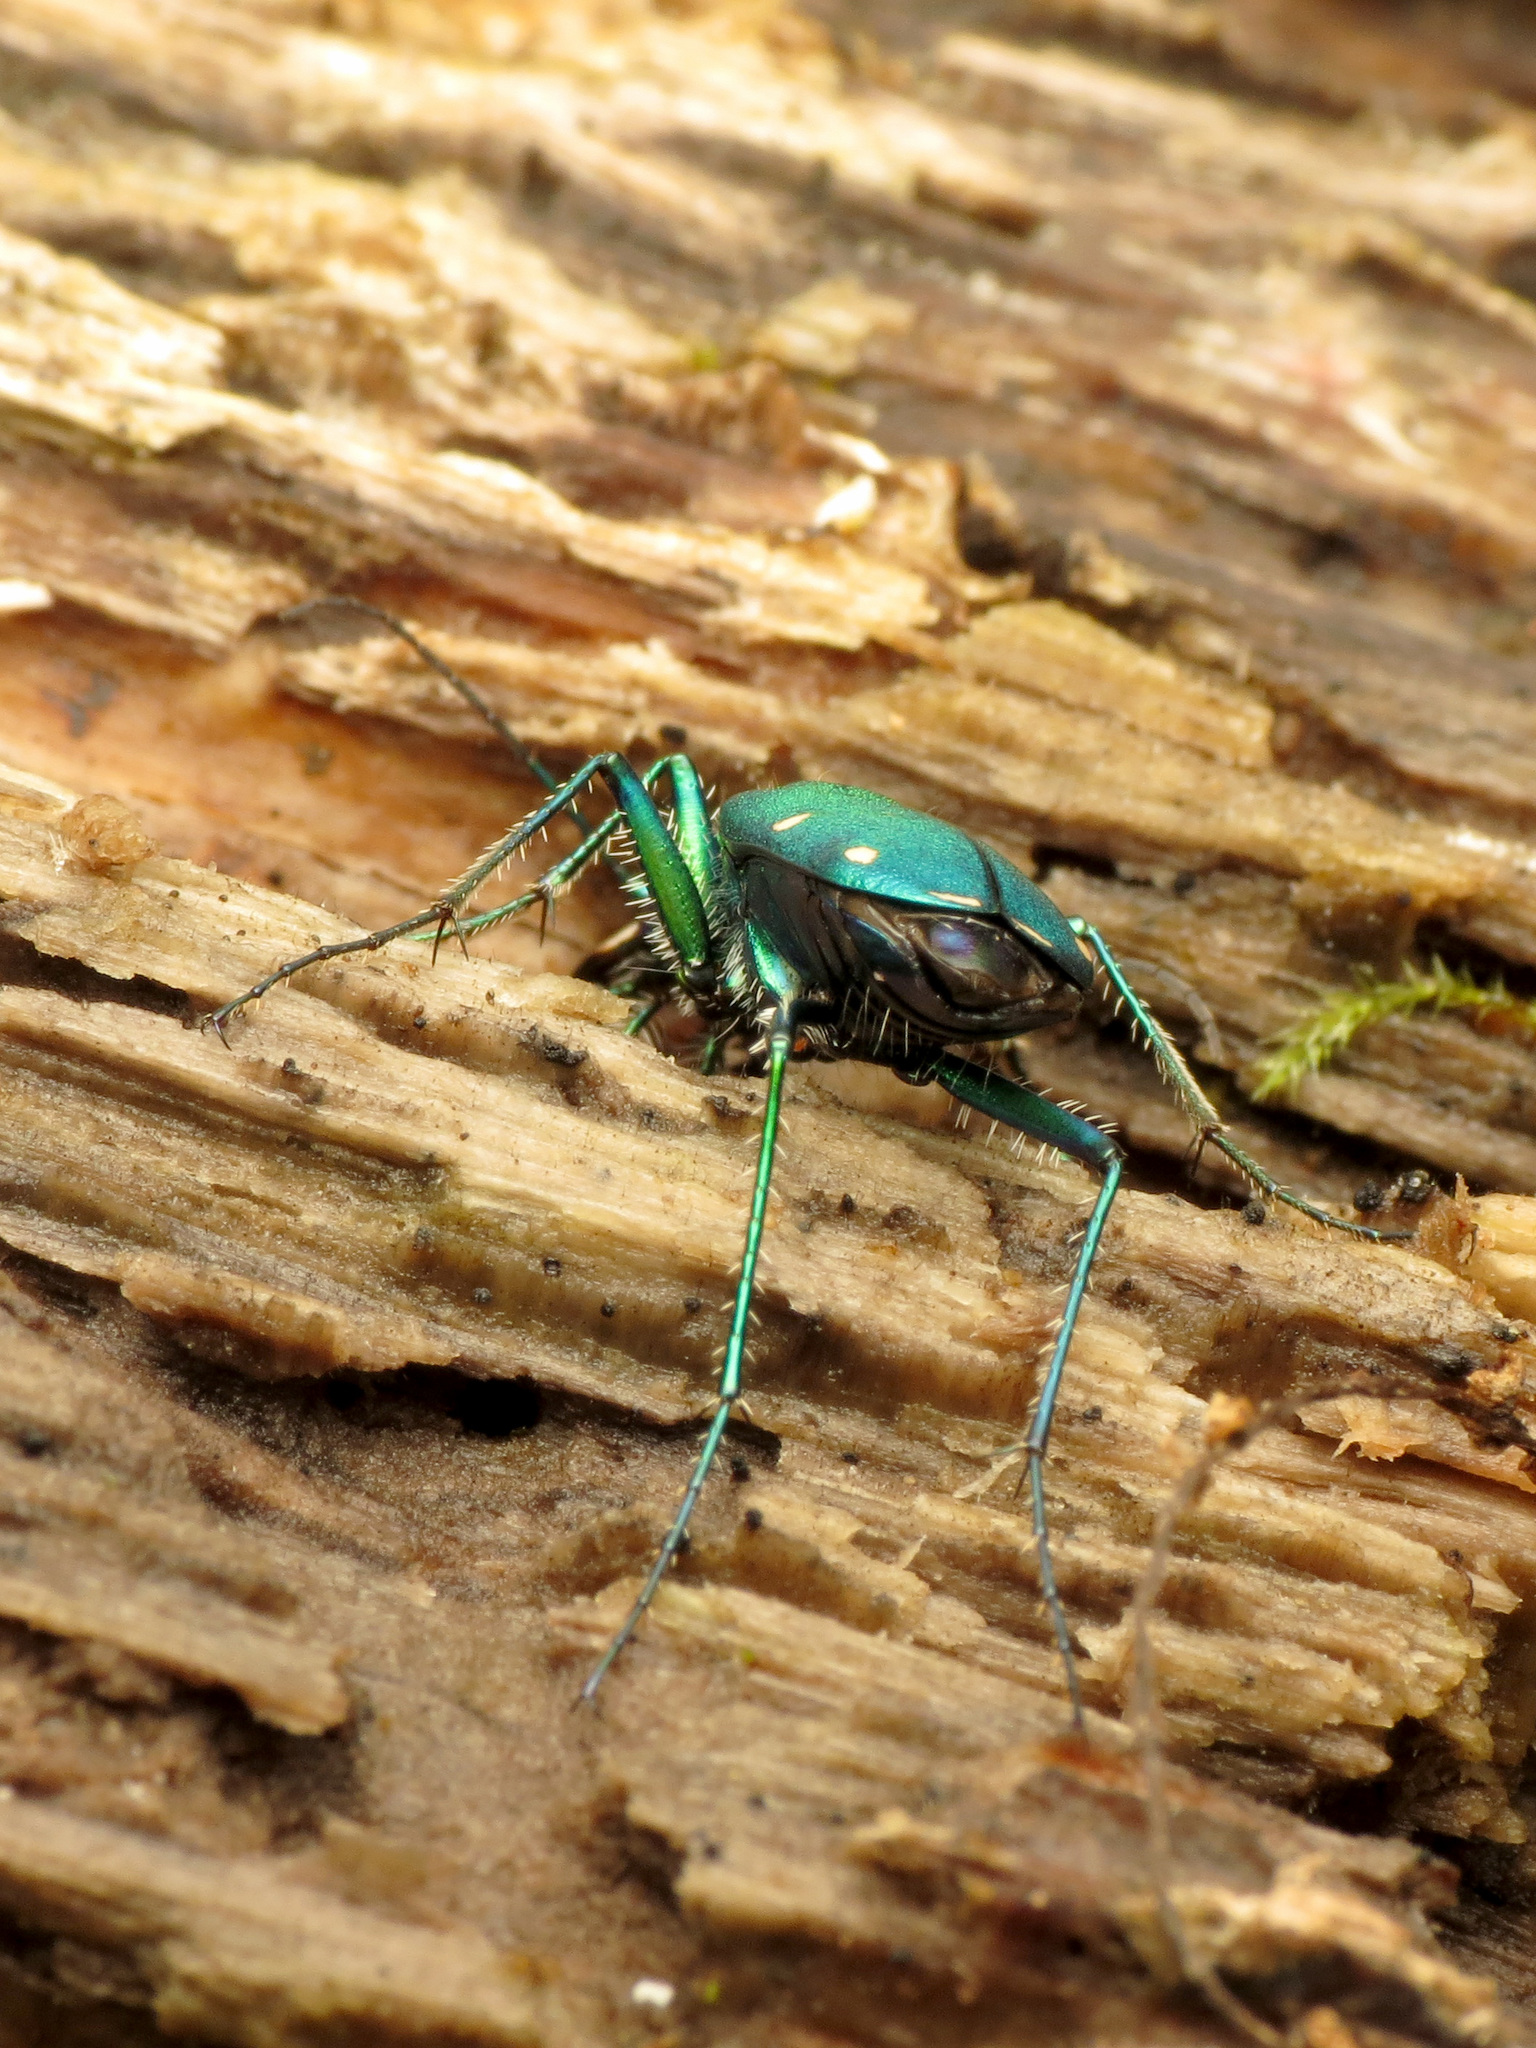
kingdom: Animalia
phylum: Arthropoda
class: Insecta
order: Coleoptera
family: Carabidae
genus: Cicindela
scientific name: Cicindela sexguttata
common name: Six-spotted tiger beetle
